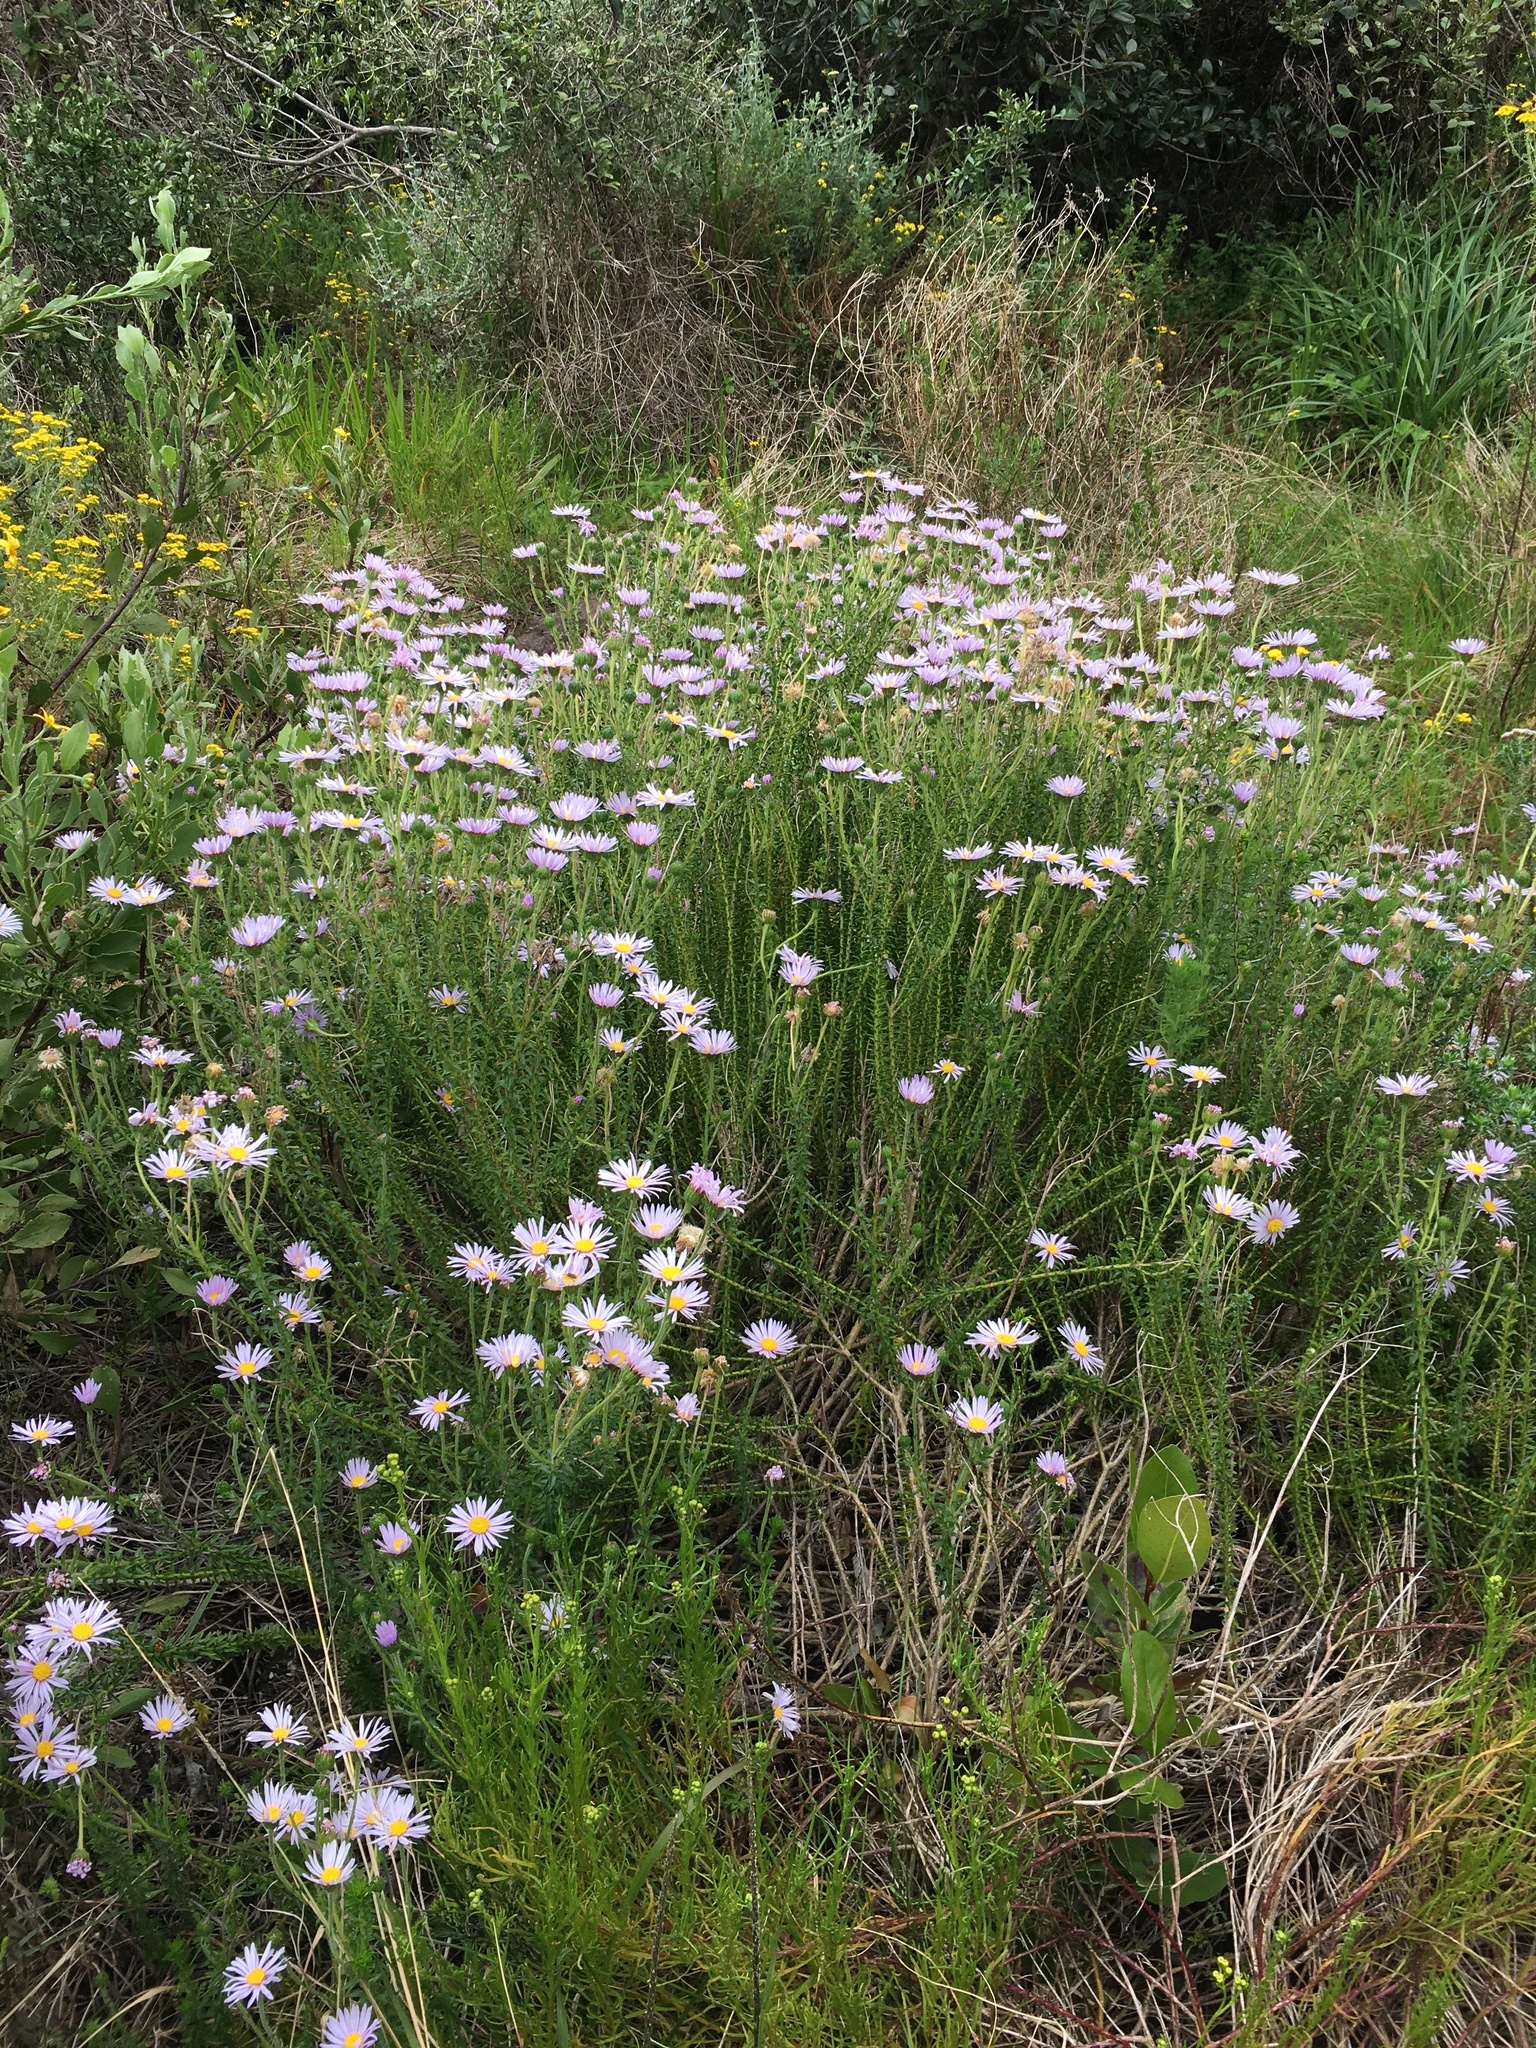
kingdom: Plantae
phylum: Tracheophyta
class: Magnoliopsida
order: Asterales
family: Asteraceae
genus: Felicia
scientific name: Felicia echinata
